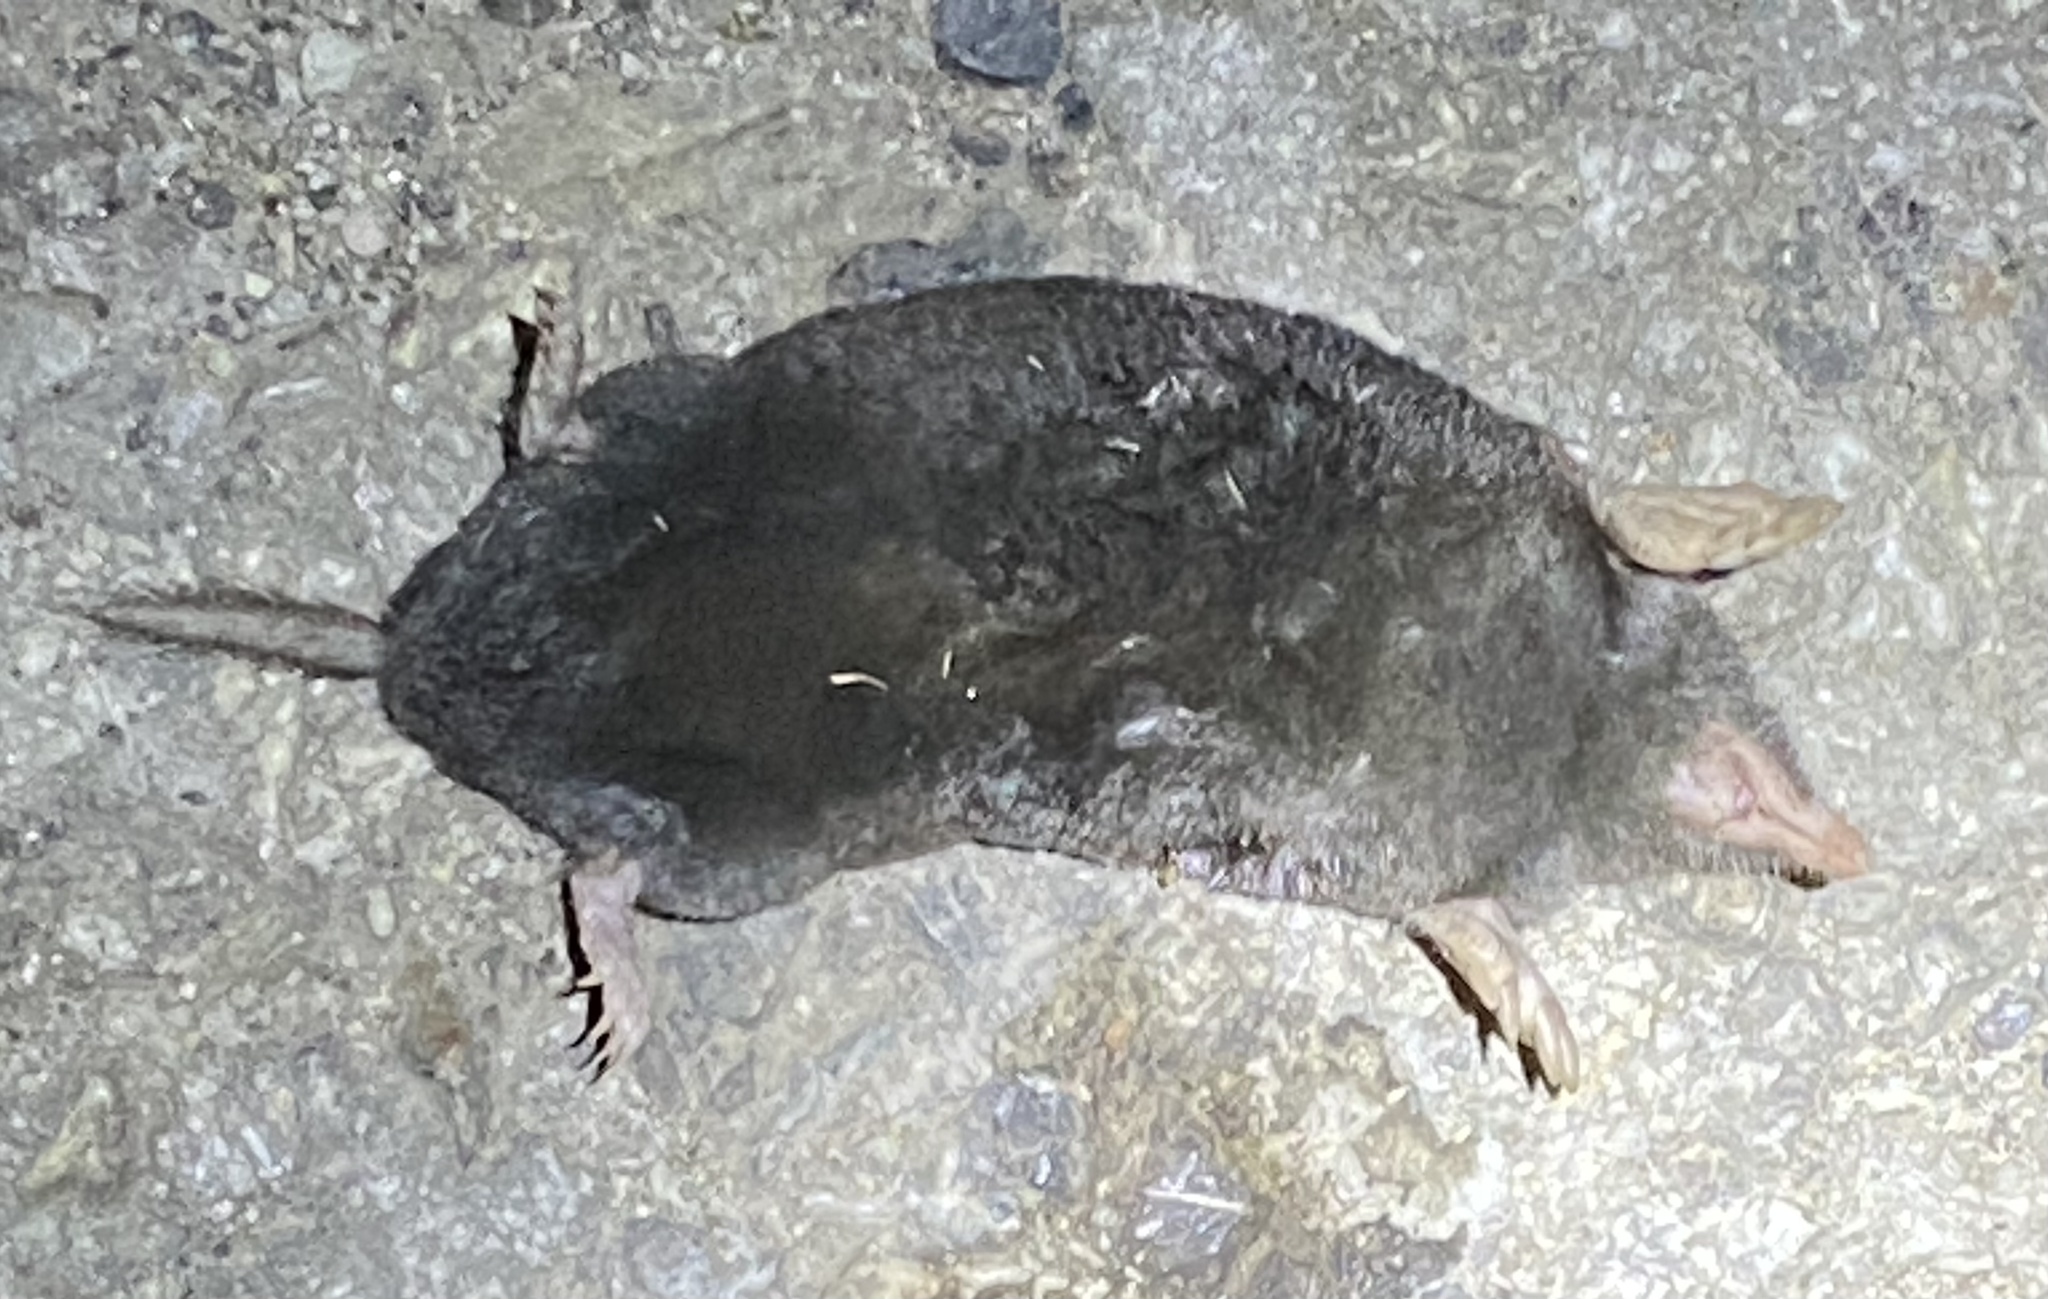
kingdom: Animalia
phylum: Chordata
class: Mammalia
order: Soricomorpha
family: Talpidae
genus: Scapanus
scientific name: Scapanus latimanus
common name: Broad-footed mole
